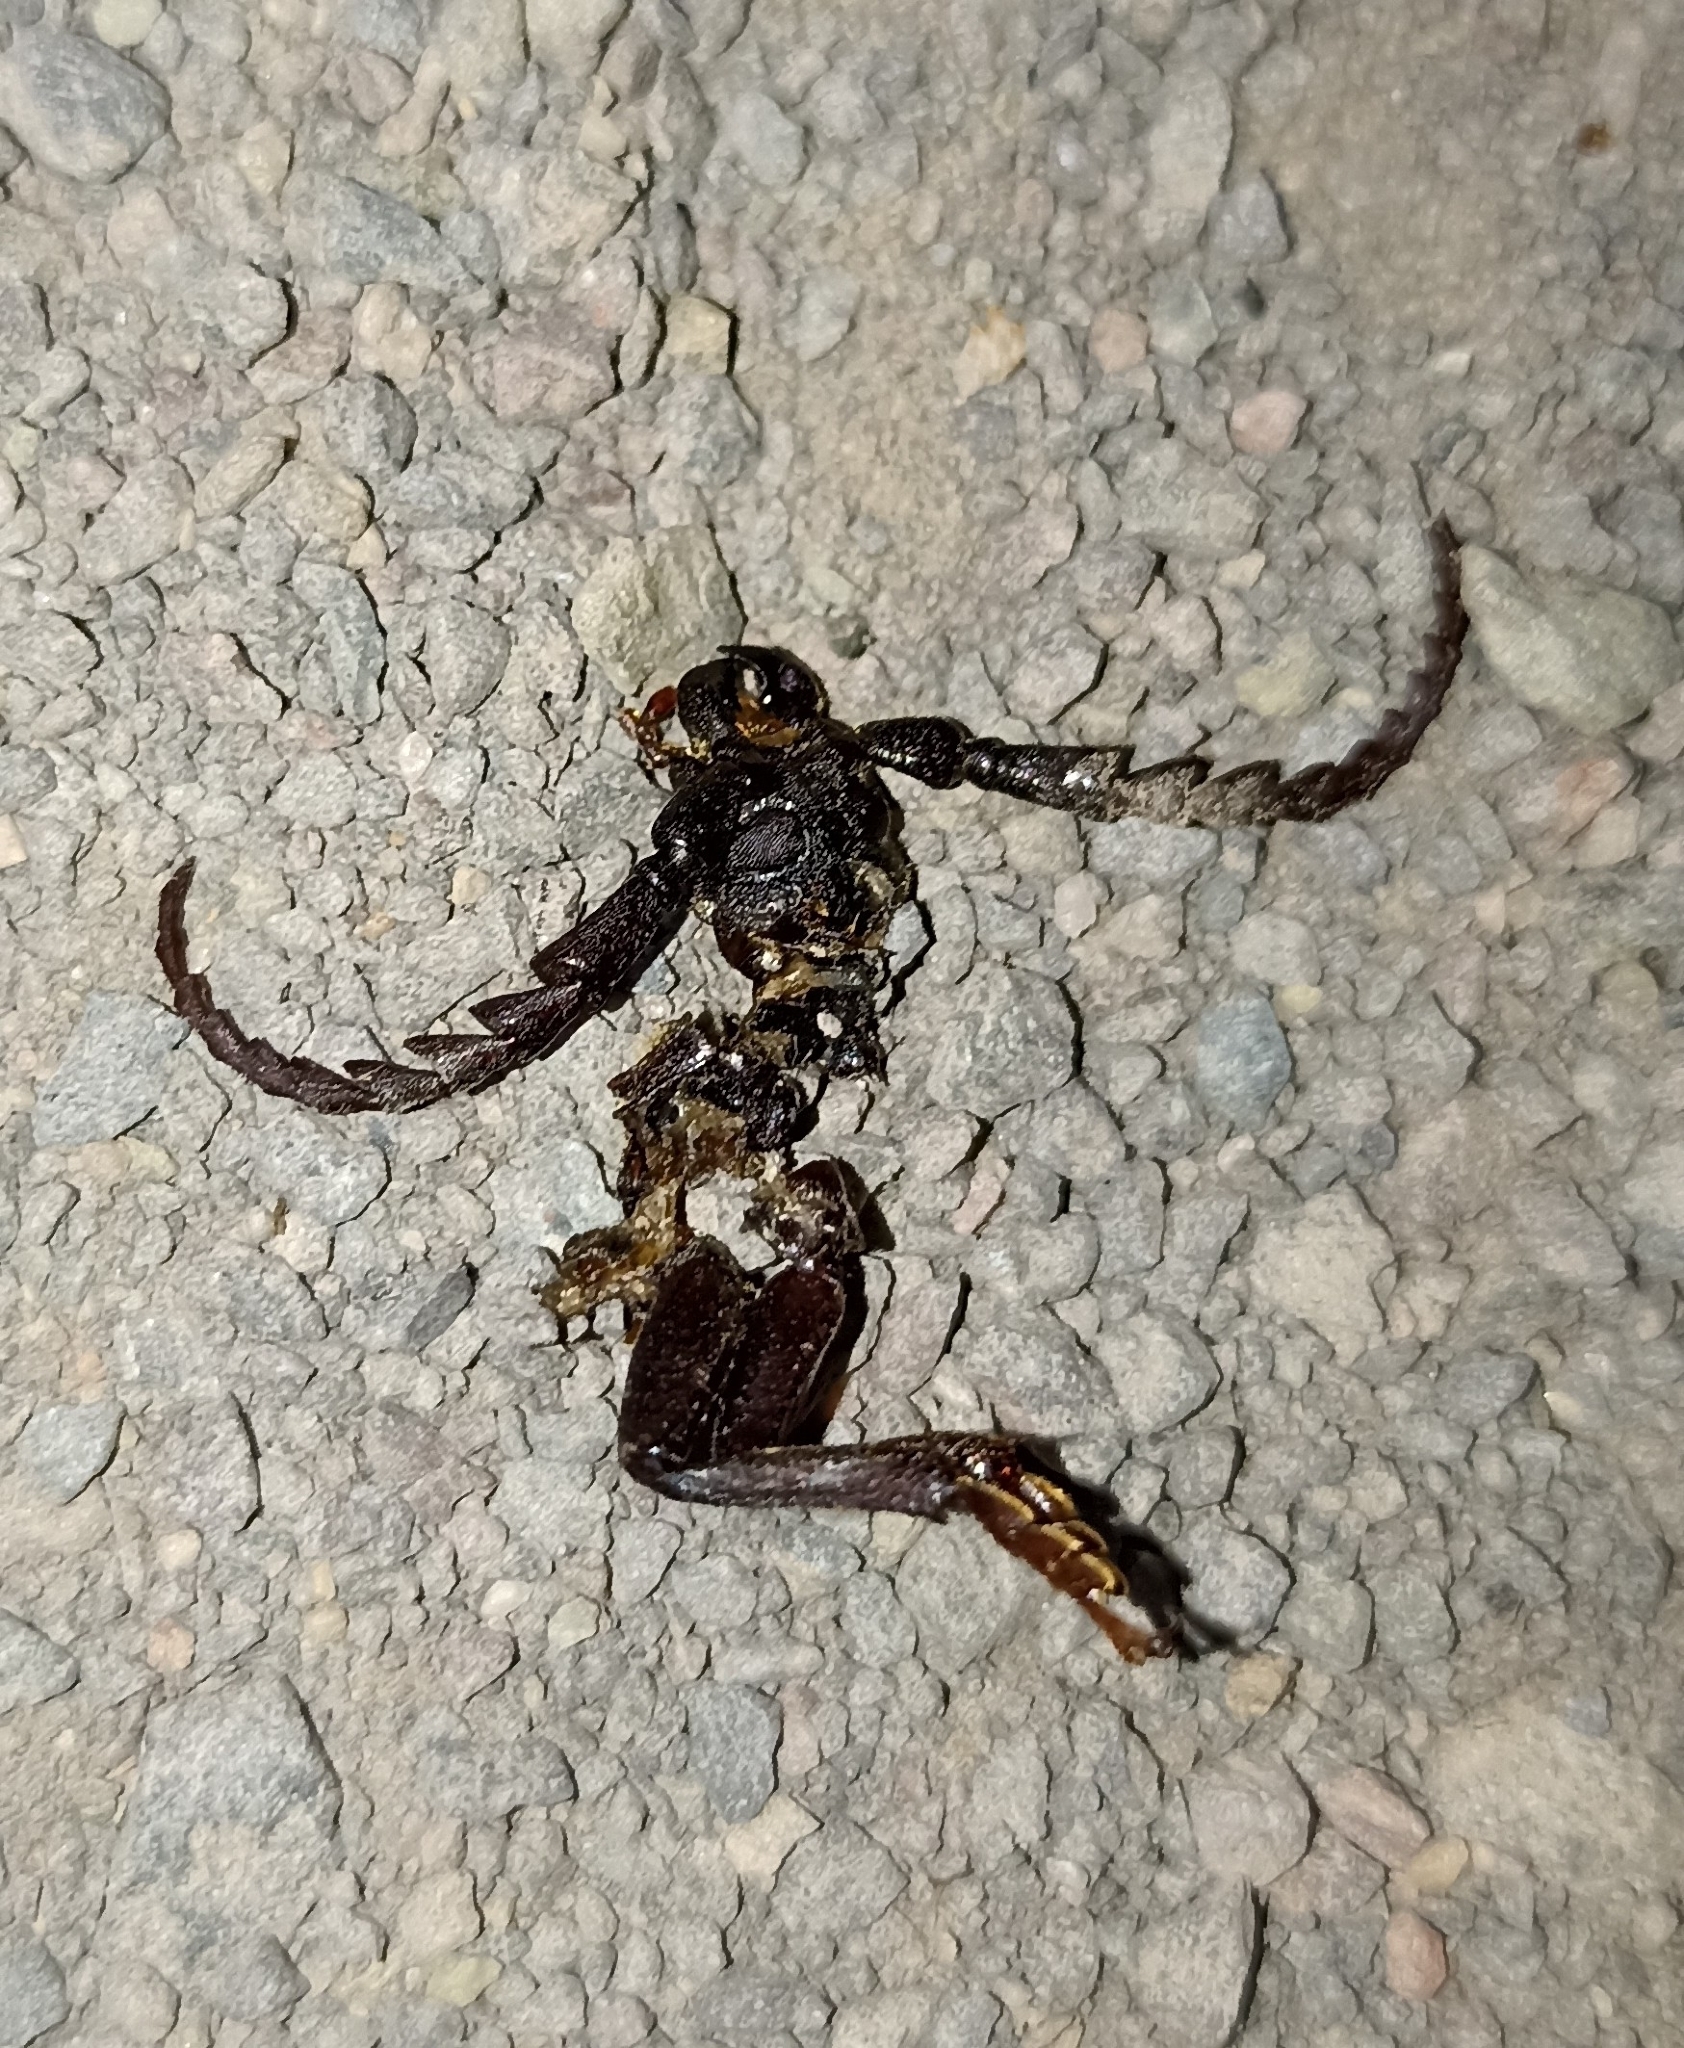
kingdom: Animalia
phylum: Arthropoda
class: Insecta
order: Coleoptera
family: Cerambycidae
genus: Prionus
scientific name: Prionus coriarius
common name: Tanner beetle
